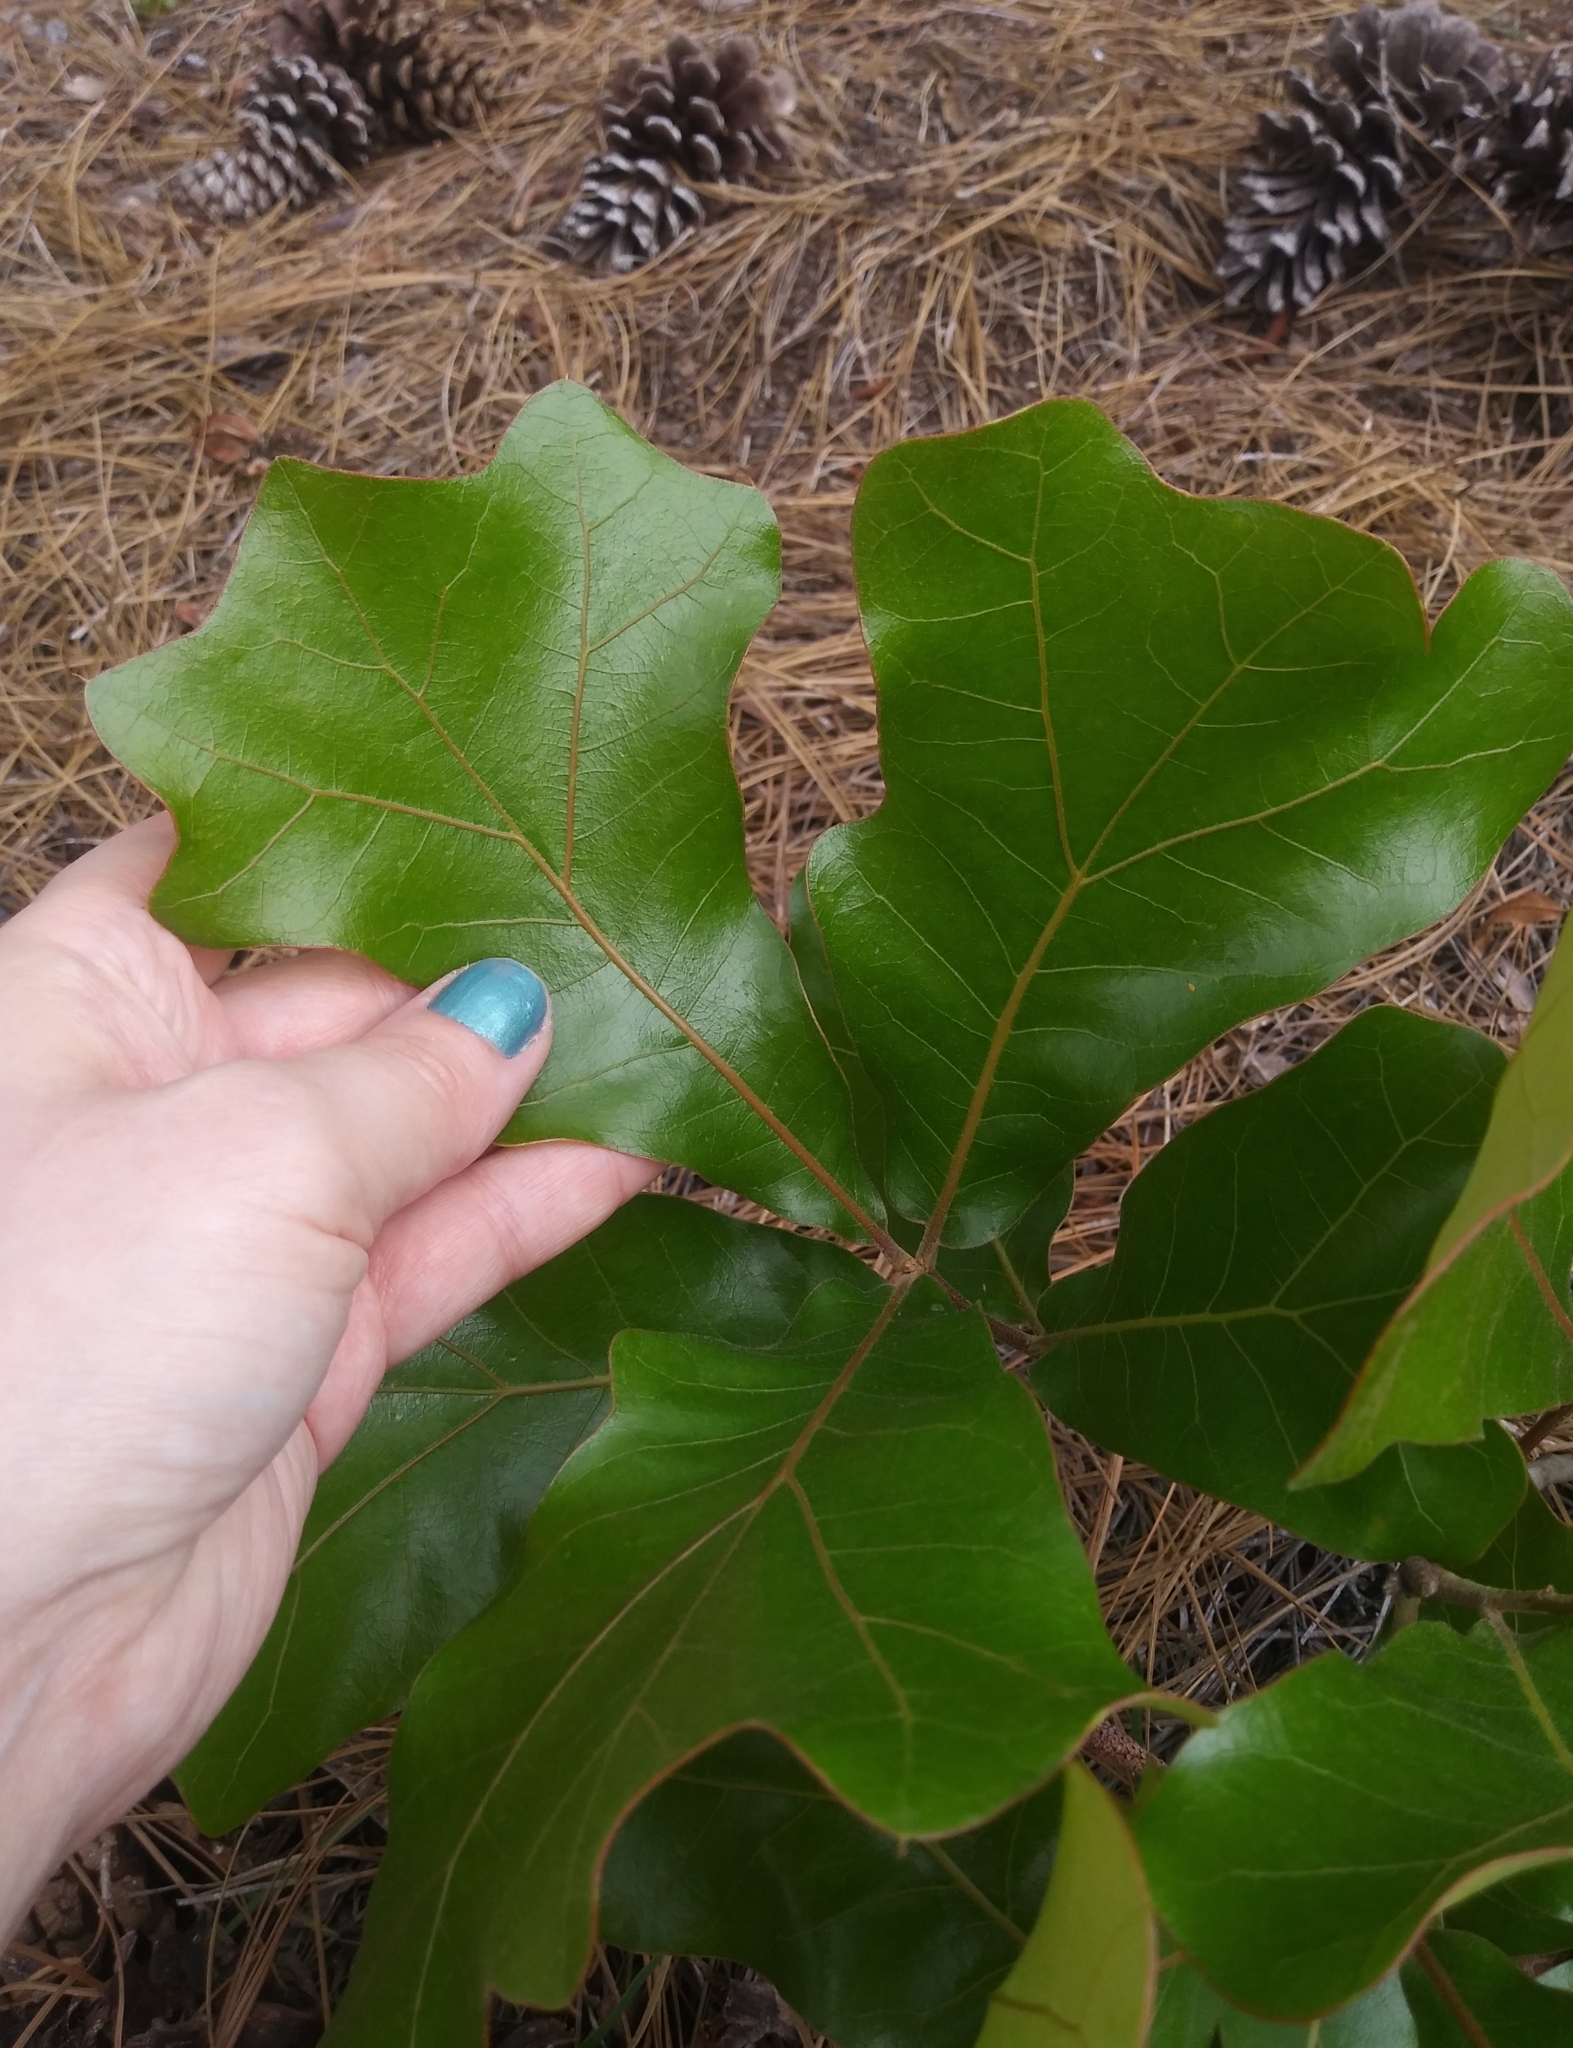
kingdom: Plantae
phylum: Tracheophyta
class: Magnoliopsida
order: Fagales
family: Fagaceae
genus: Quercus
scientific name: Quercus marilandica
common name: Blackjack oak
